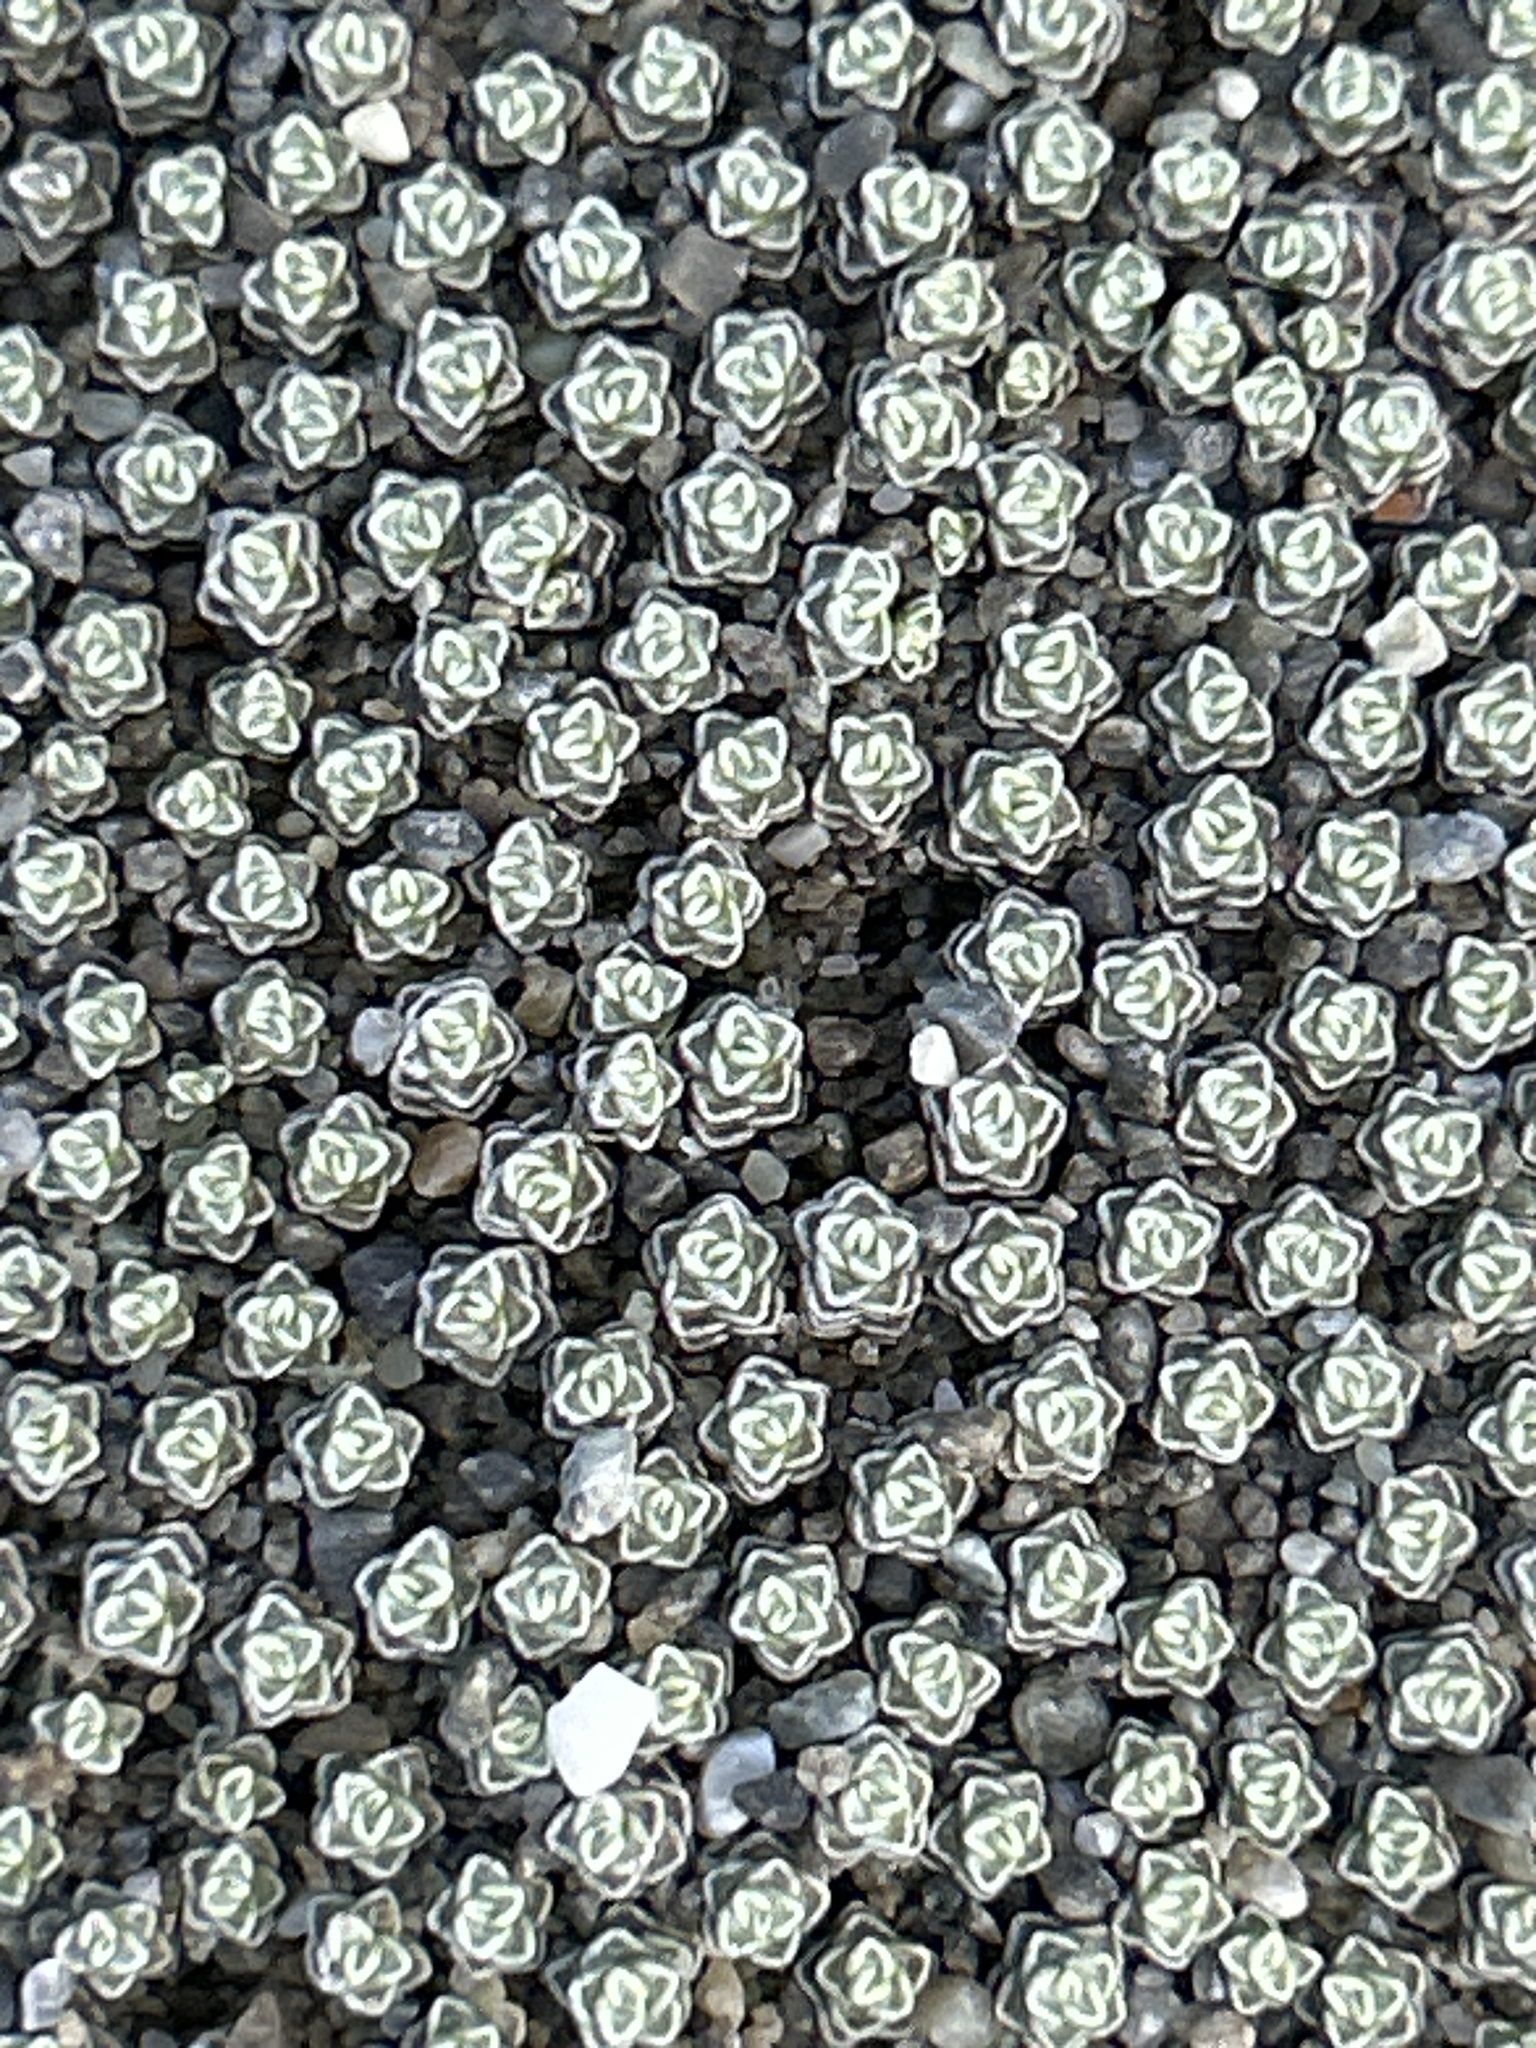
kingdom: Plantae
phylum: Tracheophyta
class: Magnoliopsida
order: Asterales
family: Asteraceae
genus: Raoulia
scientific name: Raoulia australis
